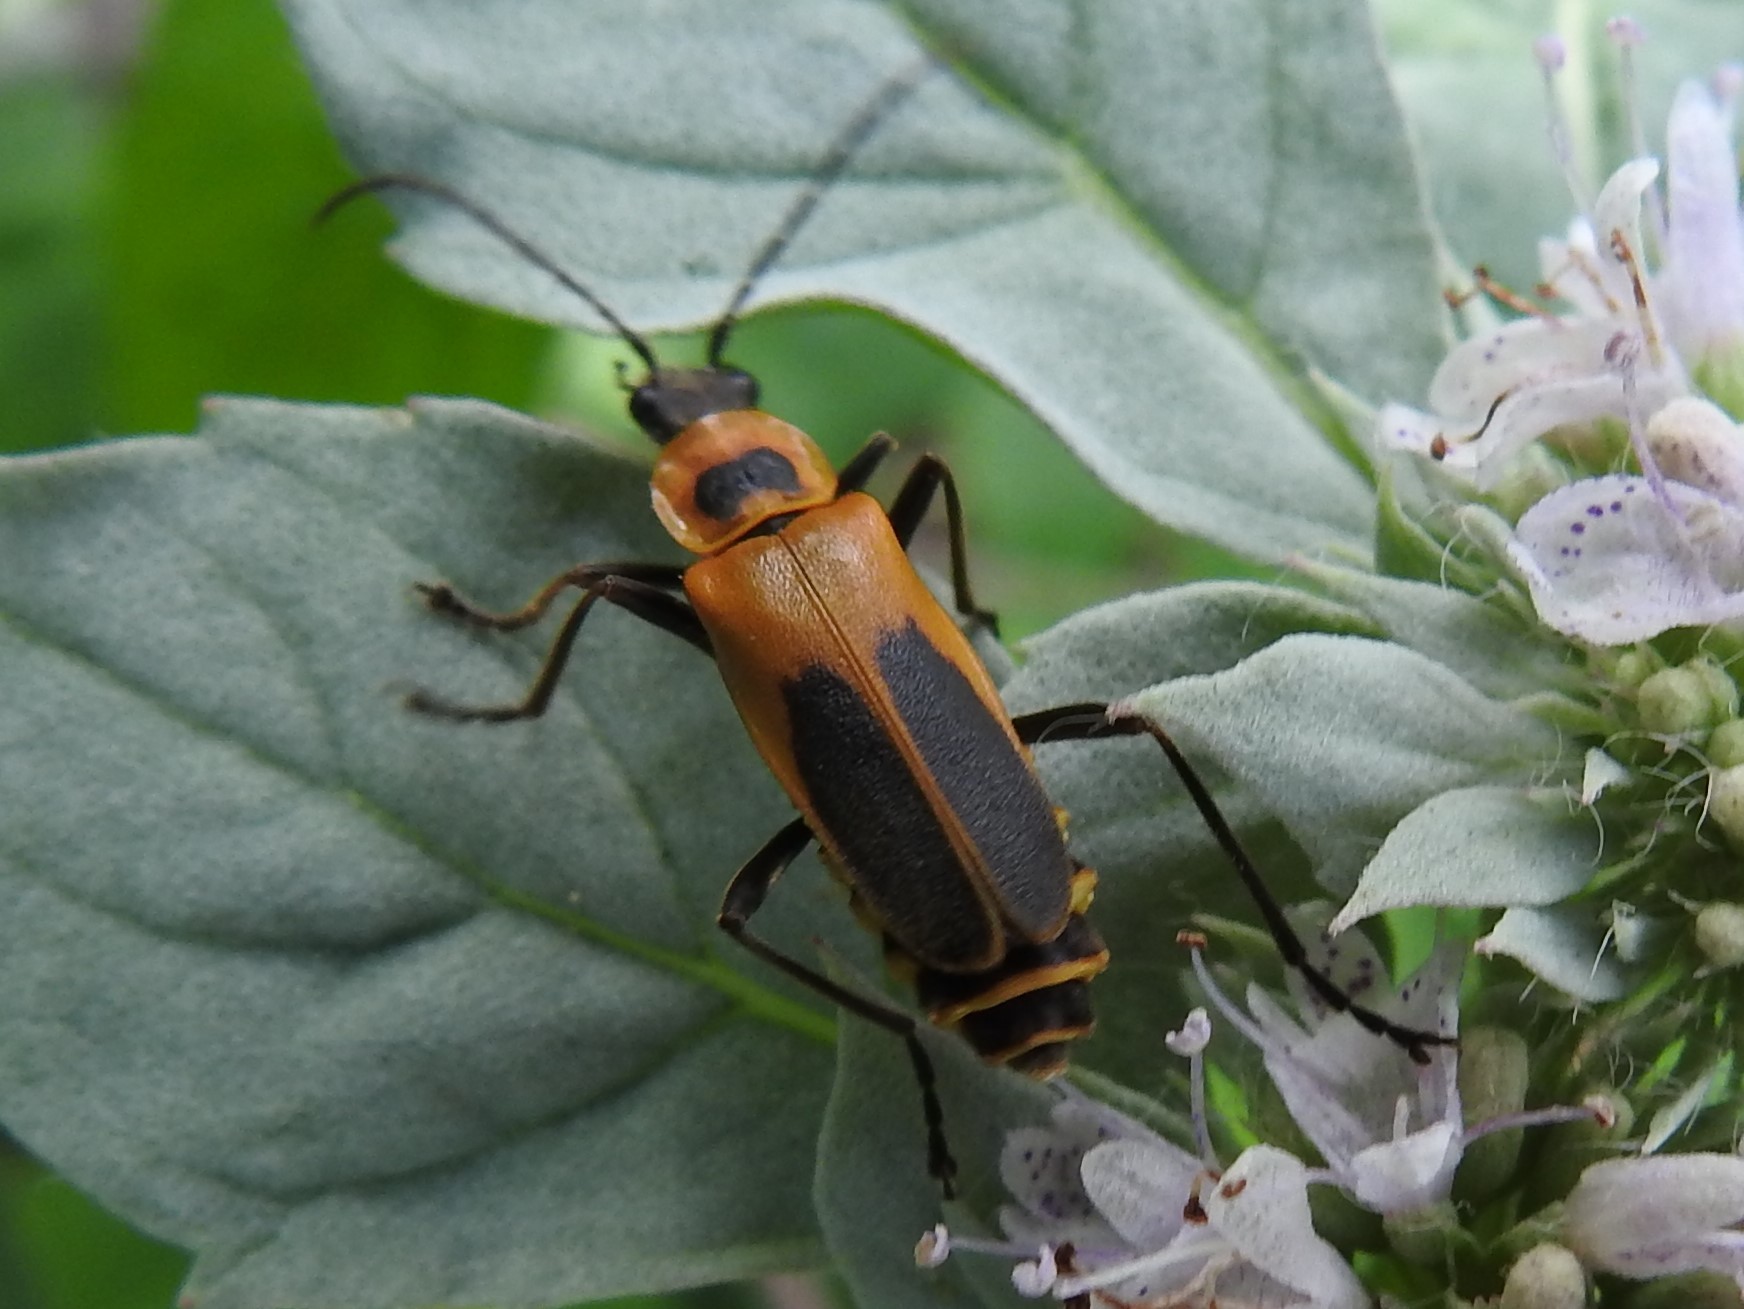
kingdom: Animalia
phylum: Arthropoda
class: Insecta
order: Coleoptera
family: Cantharidae
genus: Chauliognathus
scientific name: Chauliognathus pensylvanicus
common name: Goldenrod soldier beetle
